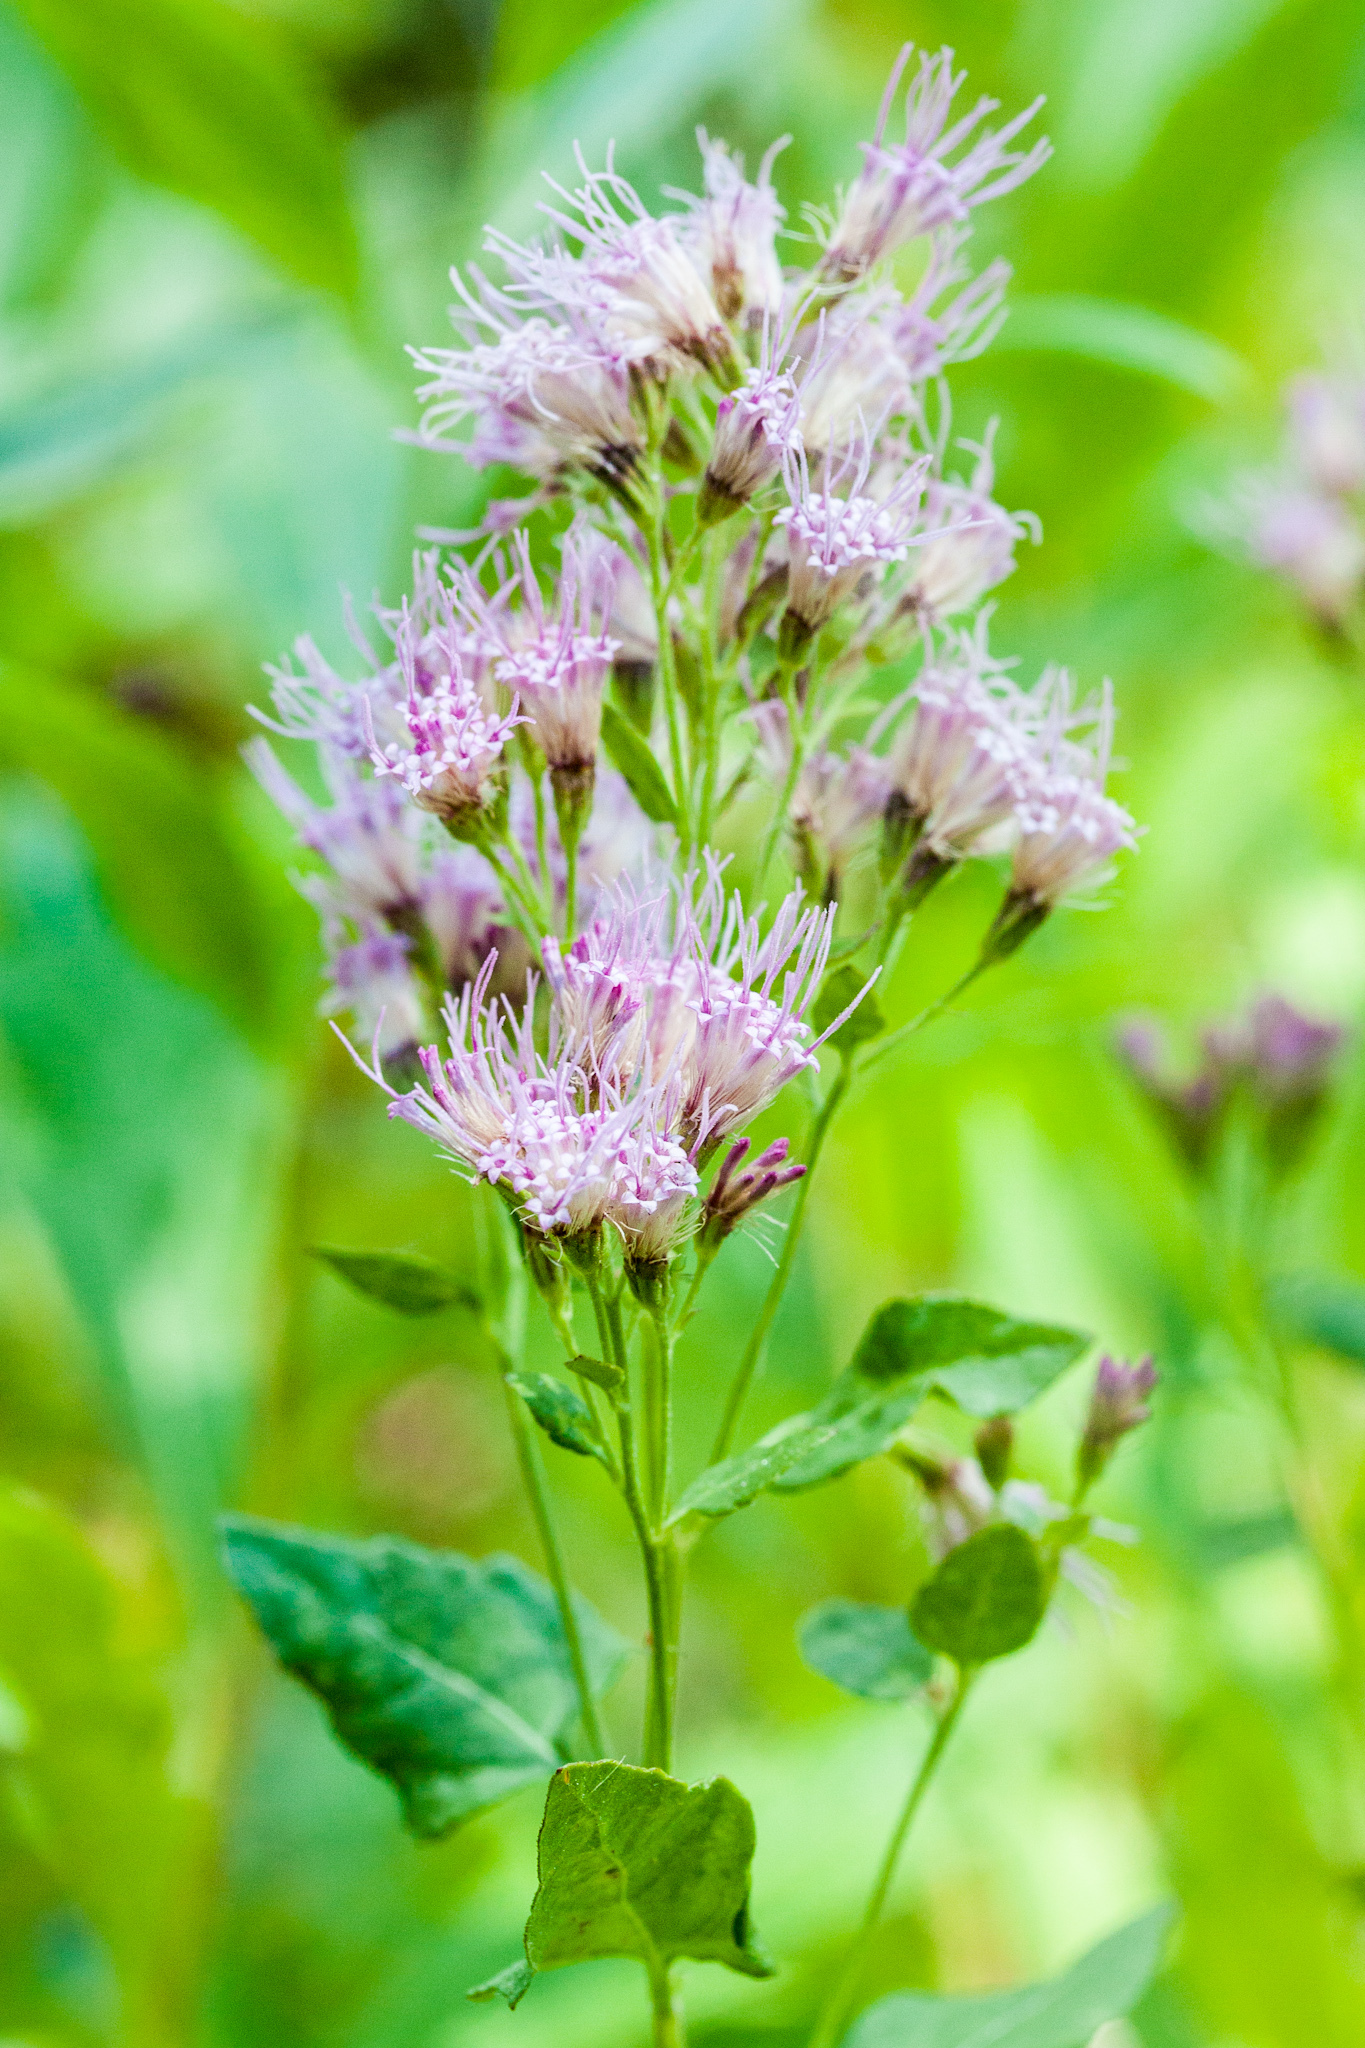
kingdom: Plantae
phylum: Tracheophyta
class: Magnoliopsida
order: Asterales
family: Asteraceae
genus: Ageratina
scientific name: Ageratina occidentalis
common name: Western snakeroot
